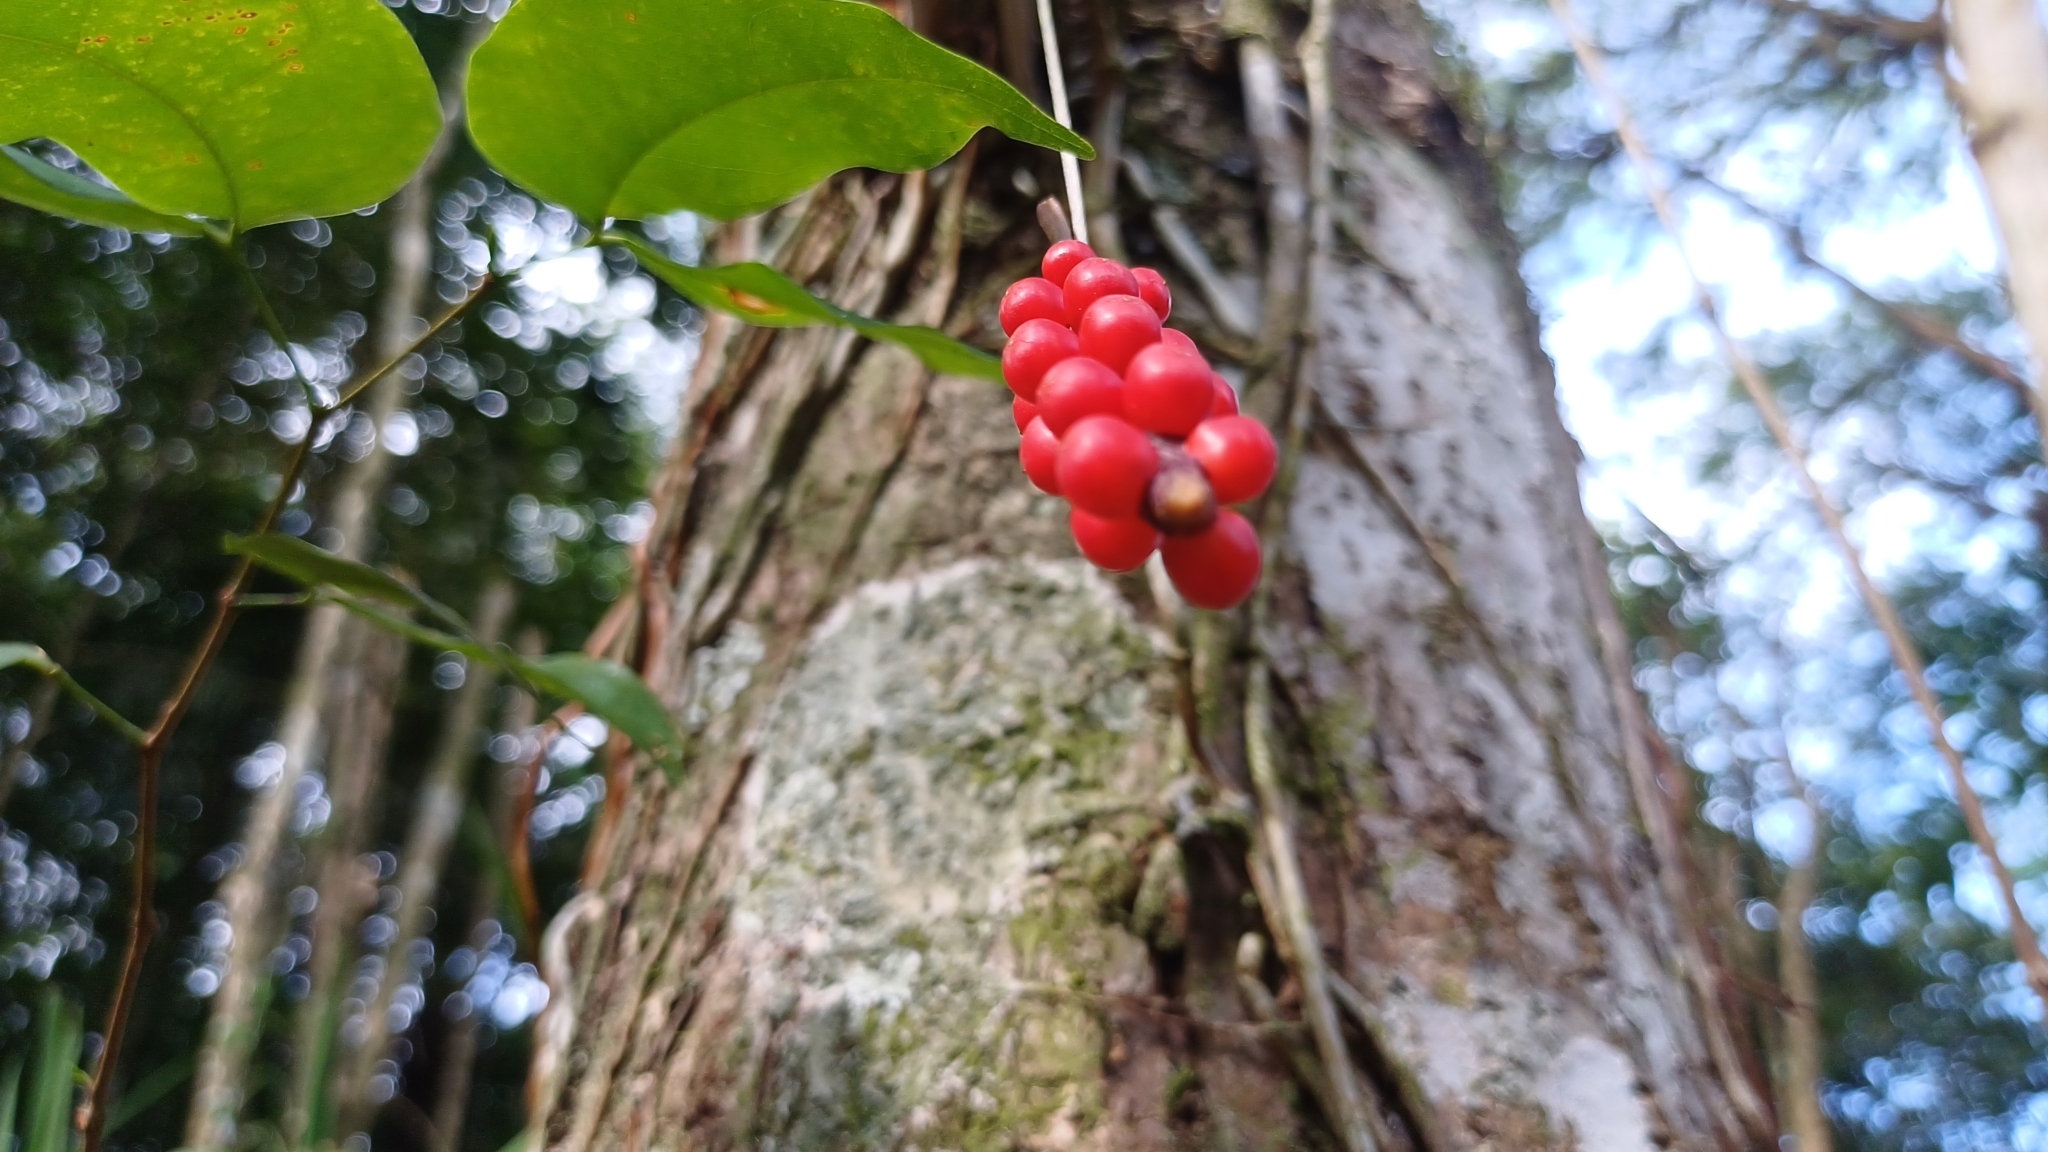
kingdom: Plantae
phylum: Tracheophyta
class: Liliopsida
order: Alismatales
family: Araceae
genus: Anthurium
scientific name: Anthurium gracile
